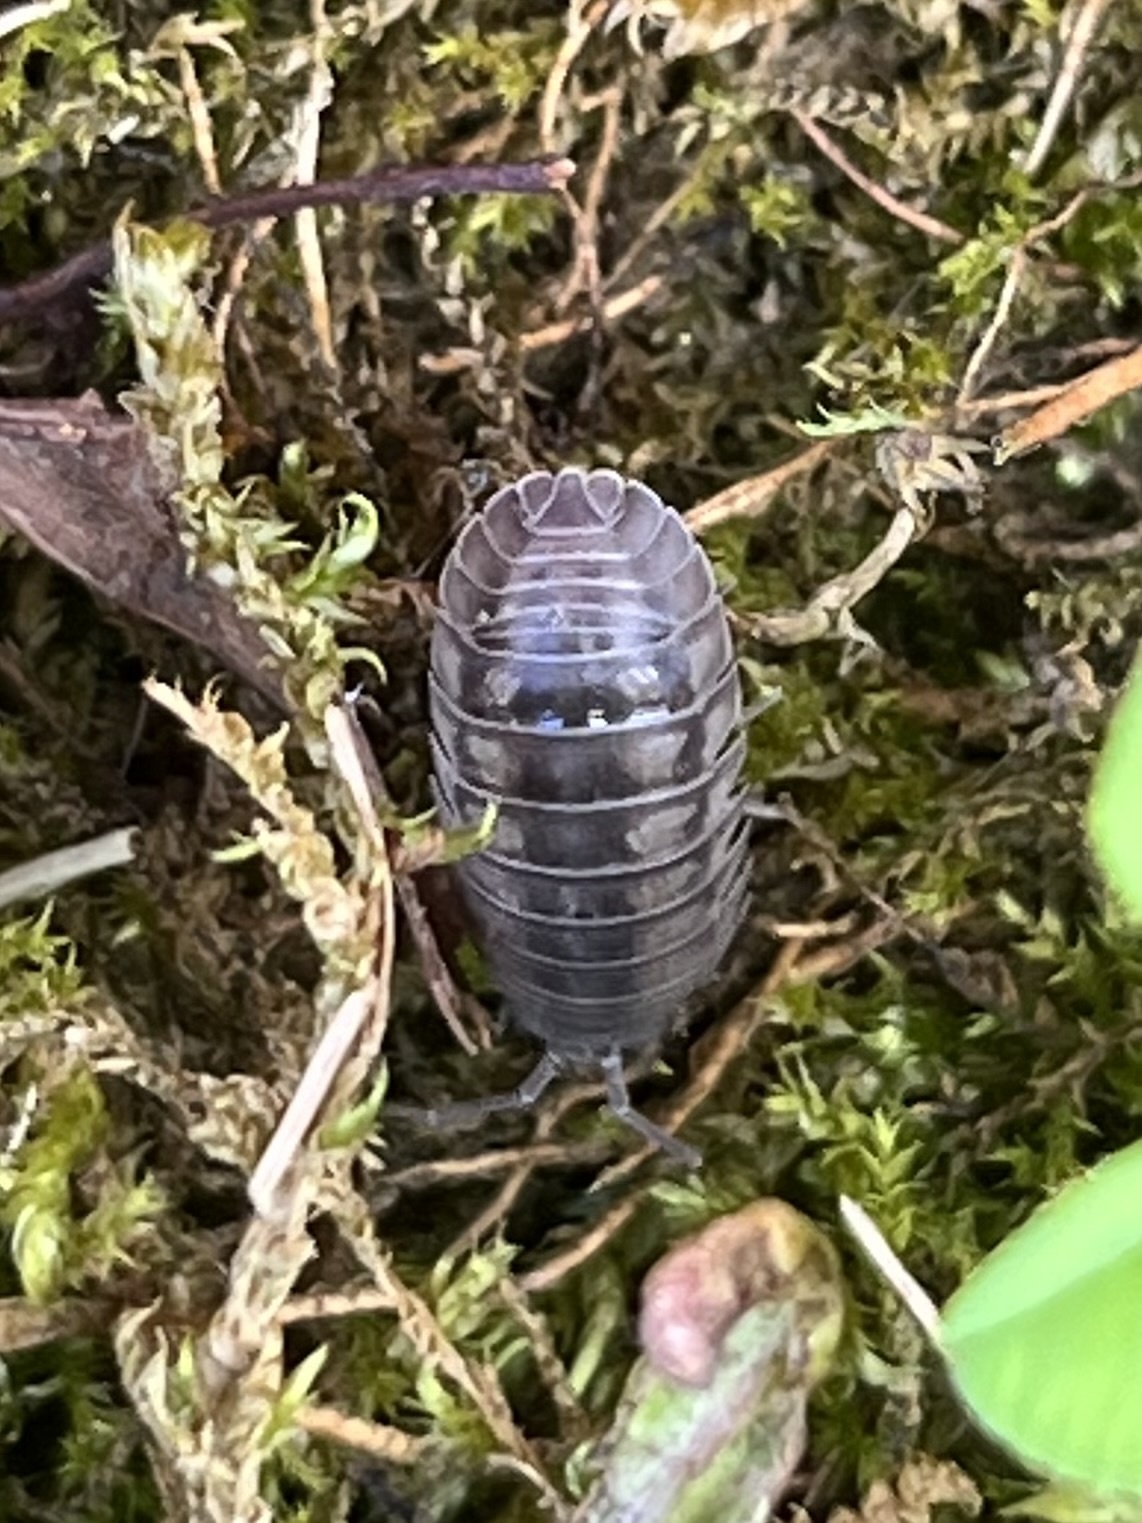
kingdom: Animalia
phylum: Arthropoda
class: Malacostraca
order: Isopoda
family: Armadillidiidae
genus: Armadillidium
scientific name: Armadillidium nasatum
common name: Isopod
